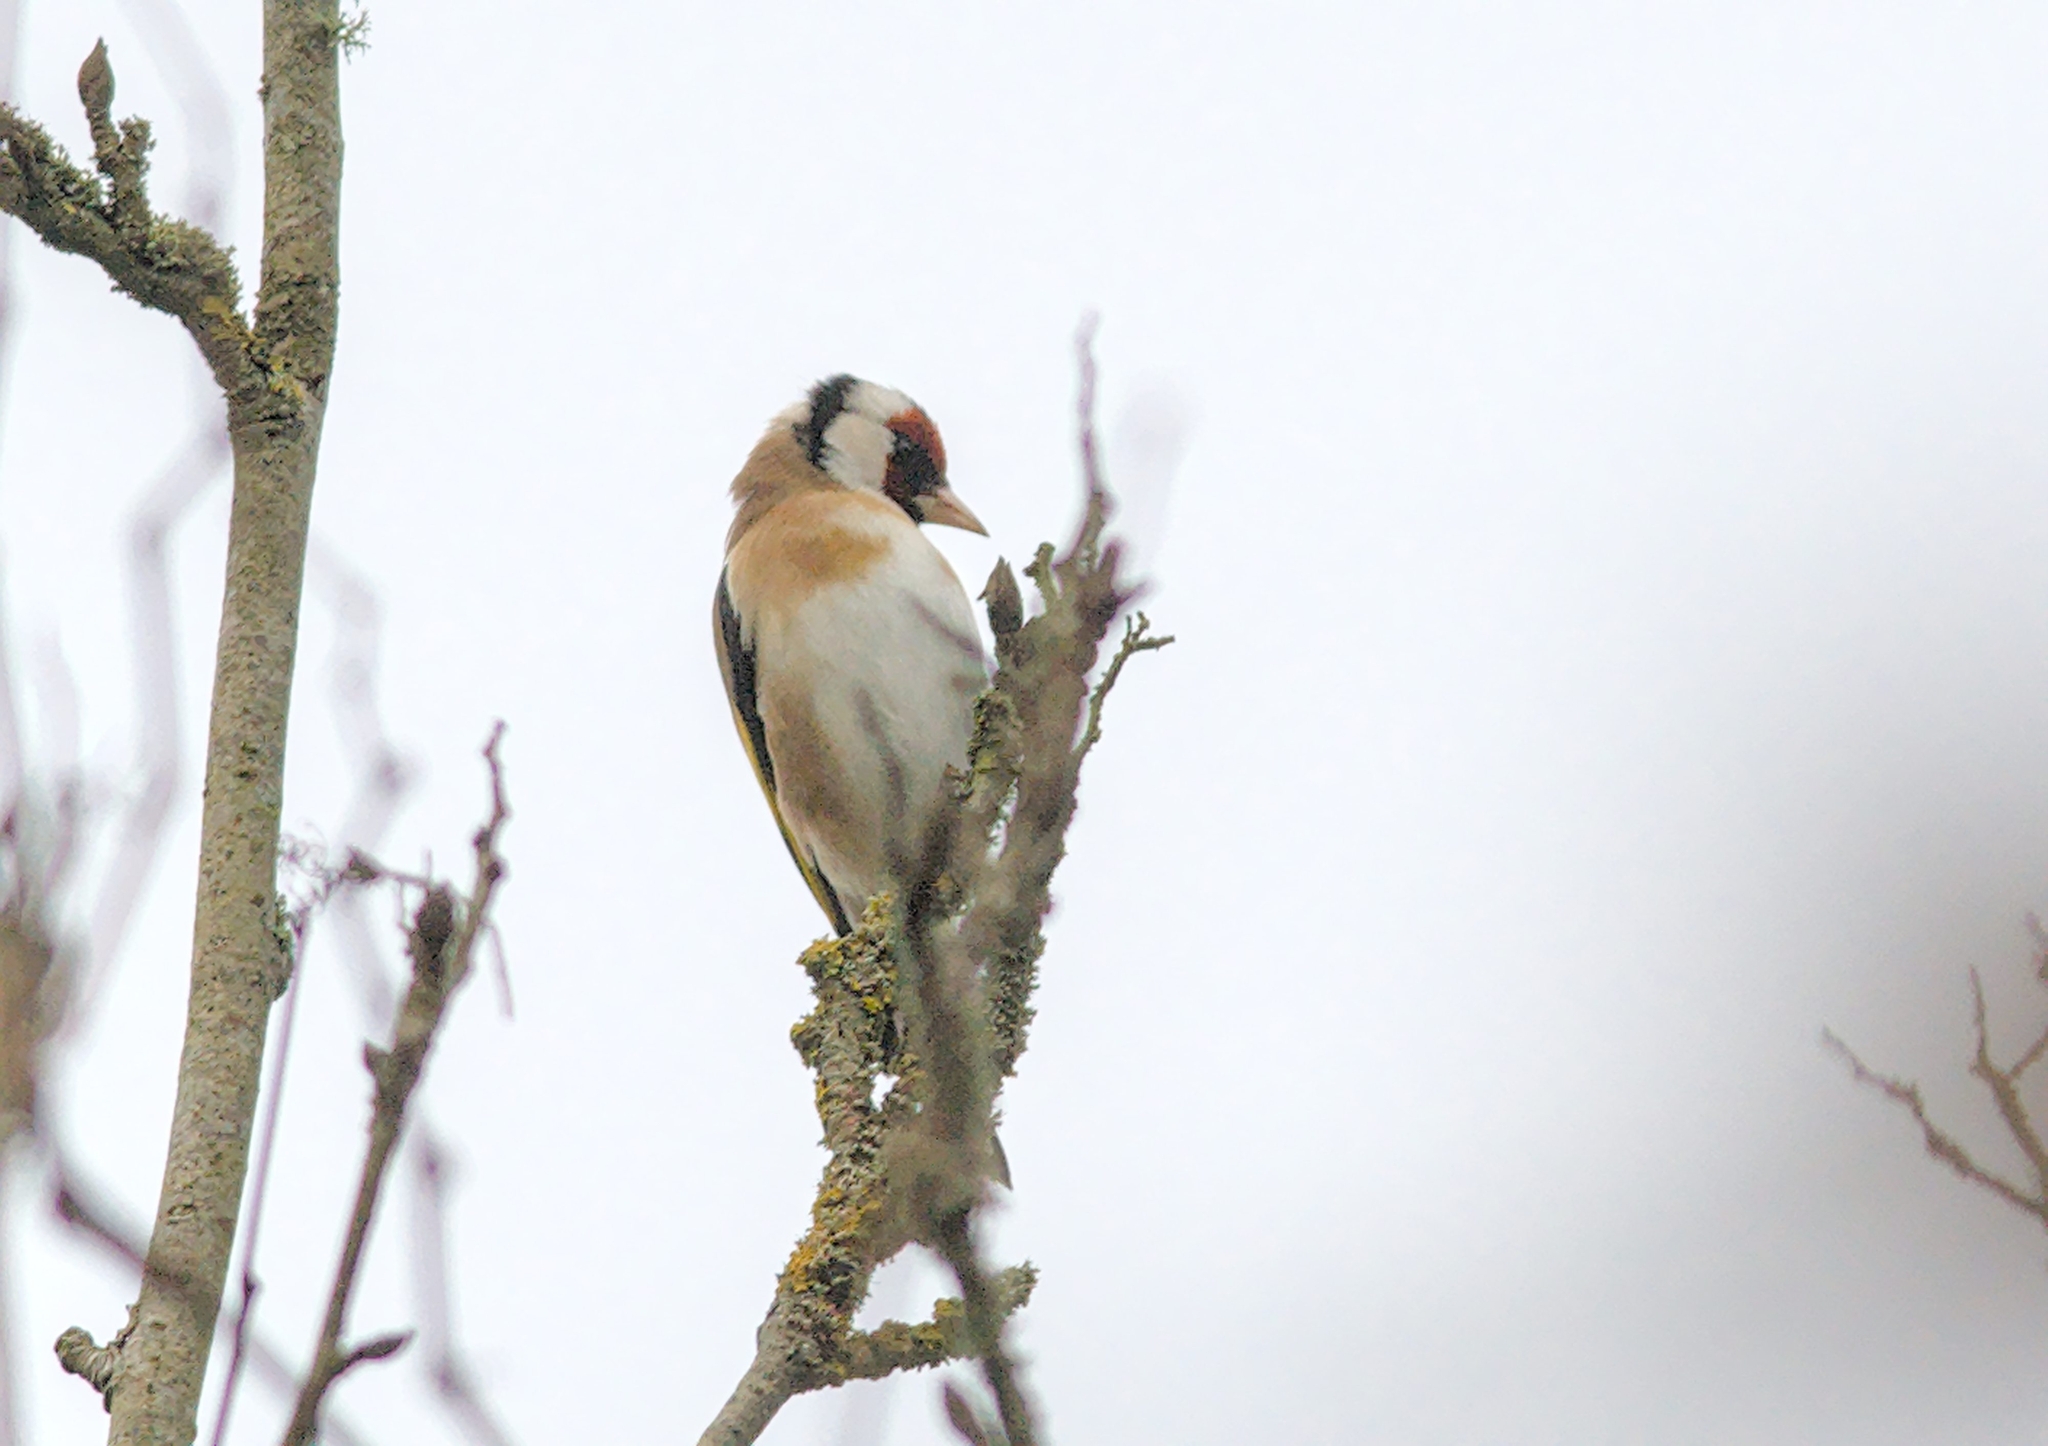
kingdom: Animalia
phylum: Chordata
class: Aves
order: Passeriformes
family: Fringillidae
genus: Carduelis
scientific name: Carduelis carduelis
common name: European goldfinch
